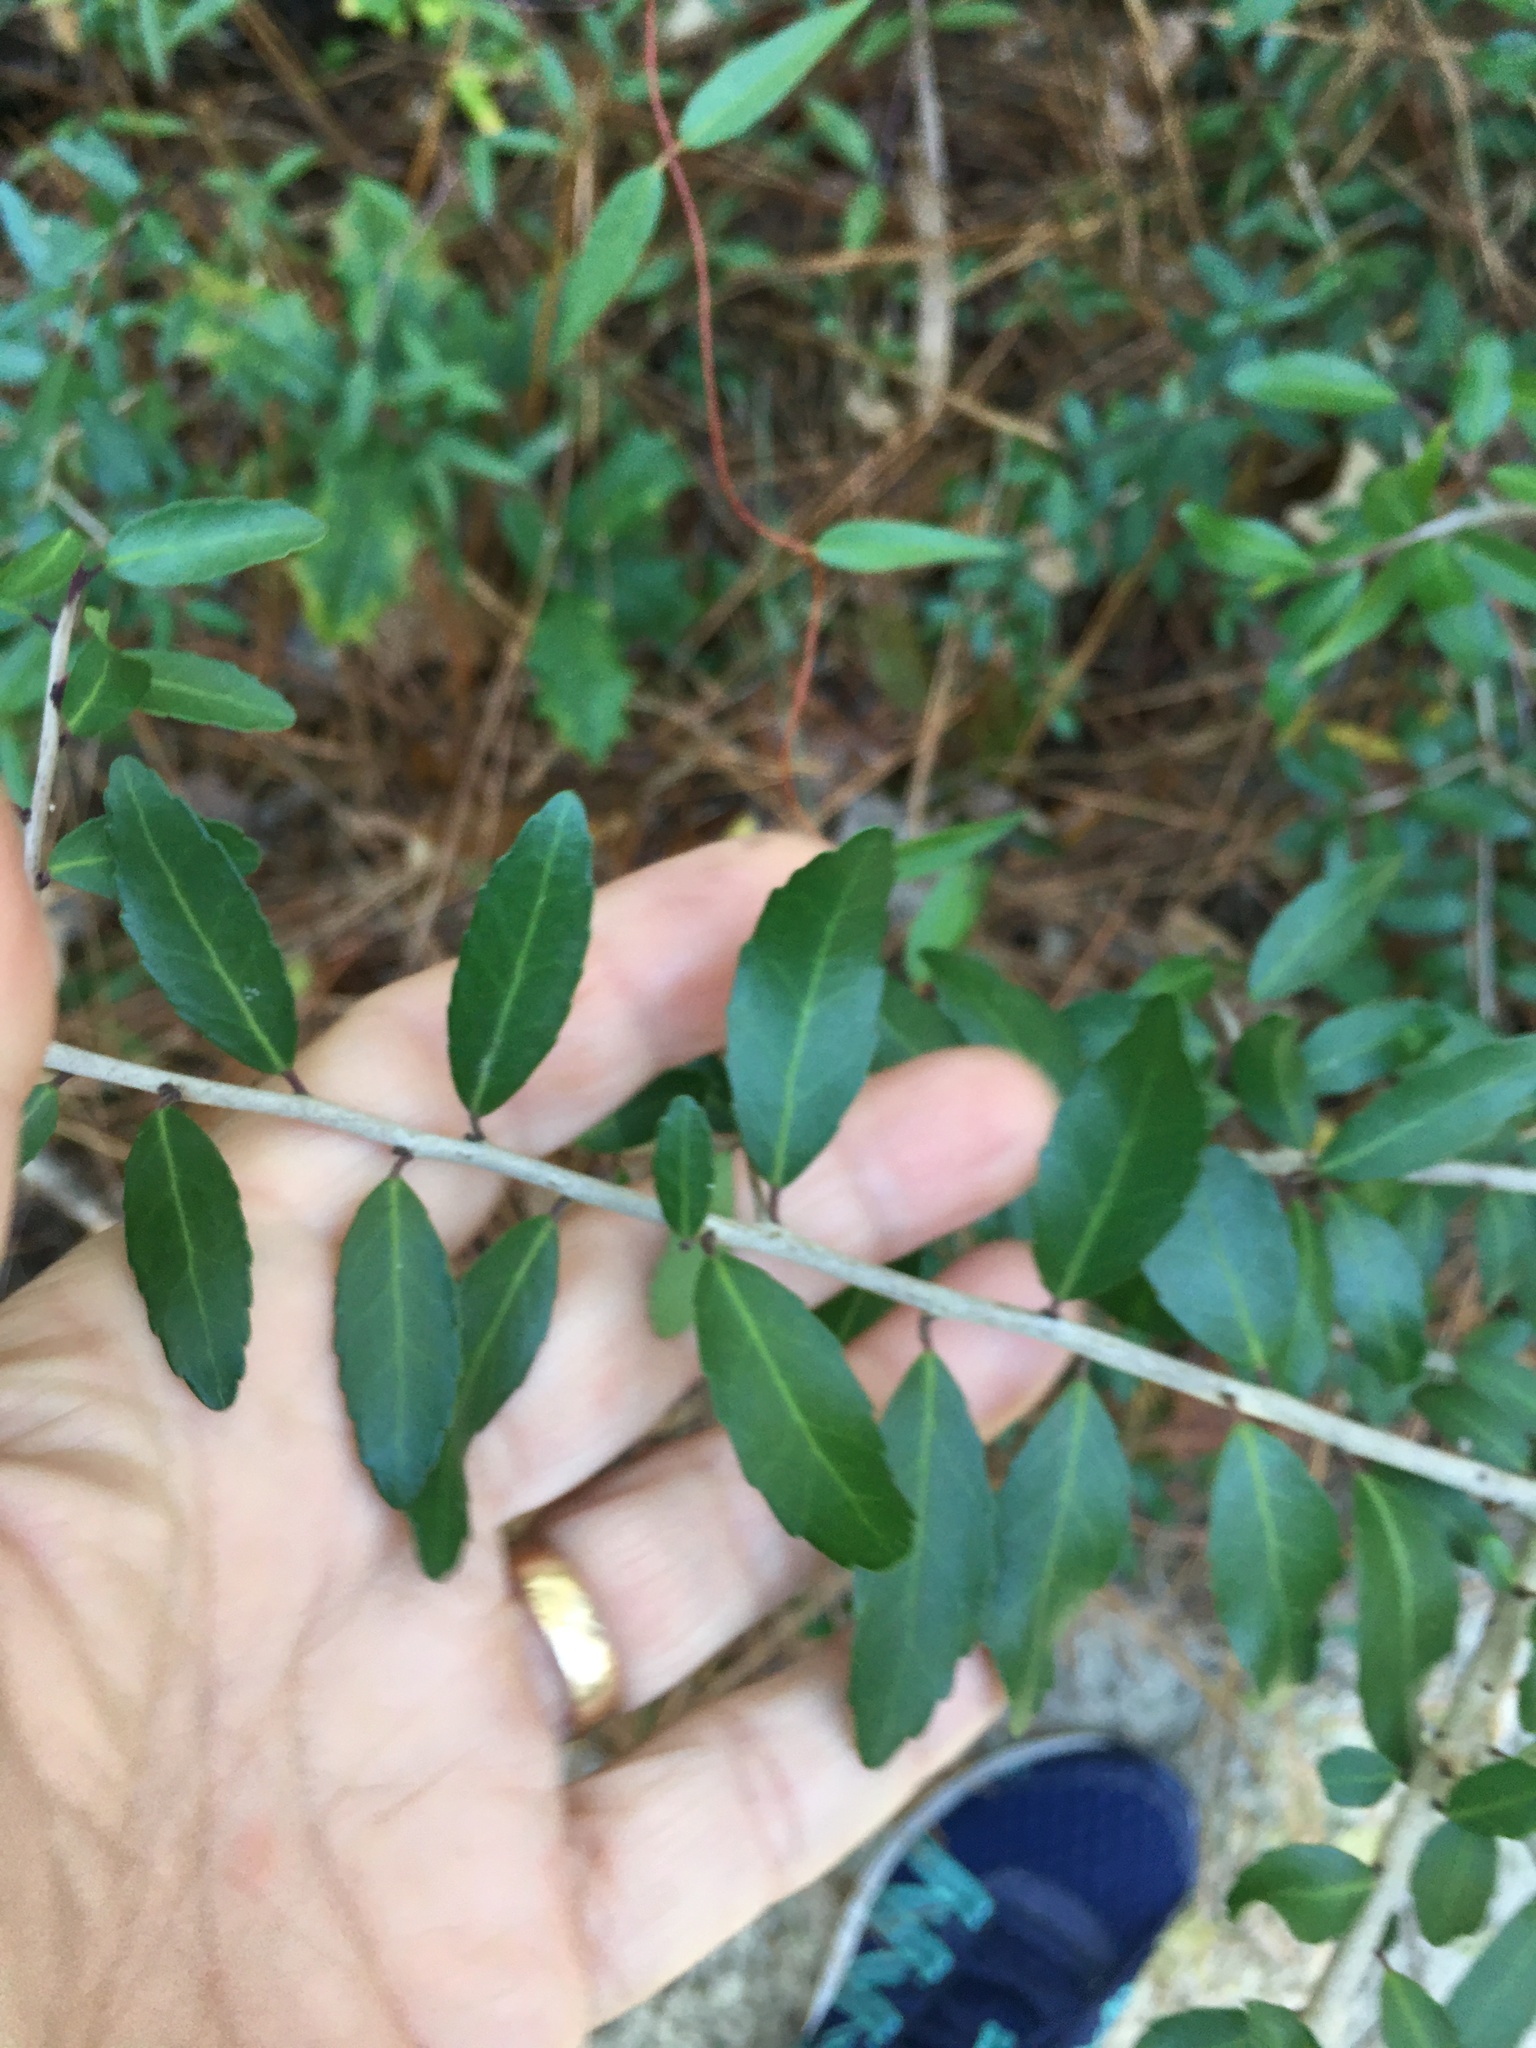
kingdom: Plantae
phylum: Tracheophyta
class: Magnoliopsida
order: Aquifoliales
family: Aquifoliaceae
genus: Ilex
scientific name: Ilex vomitoria
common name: Yaupon holly
